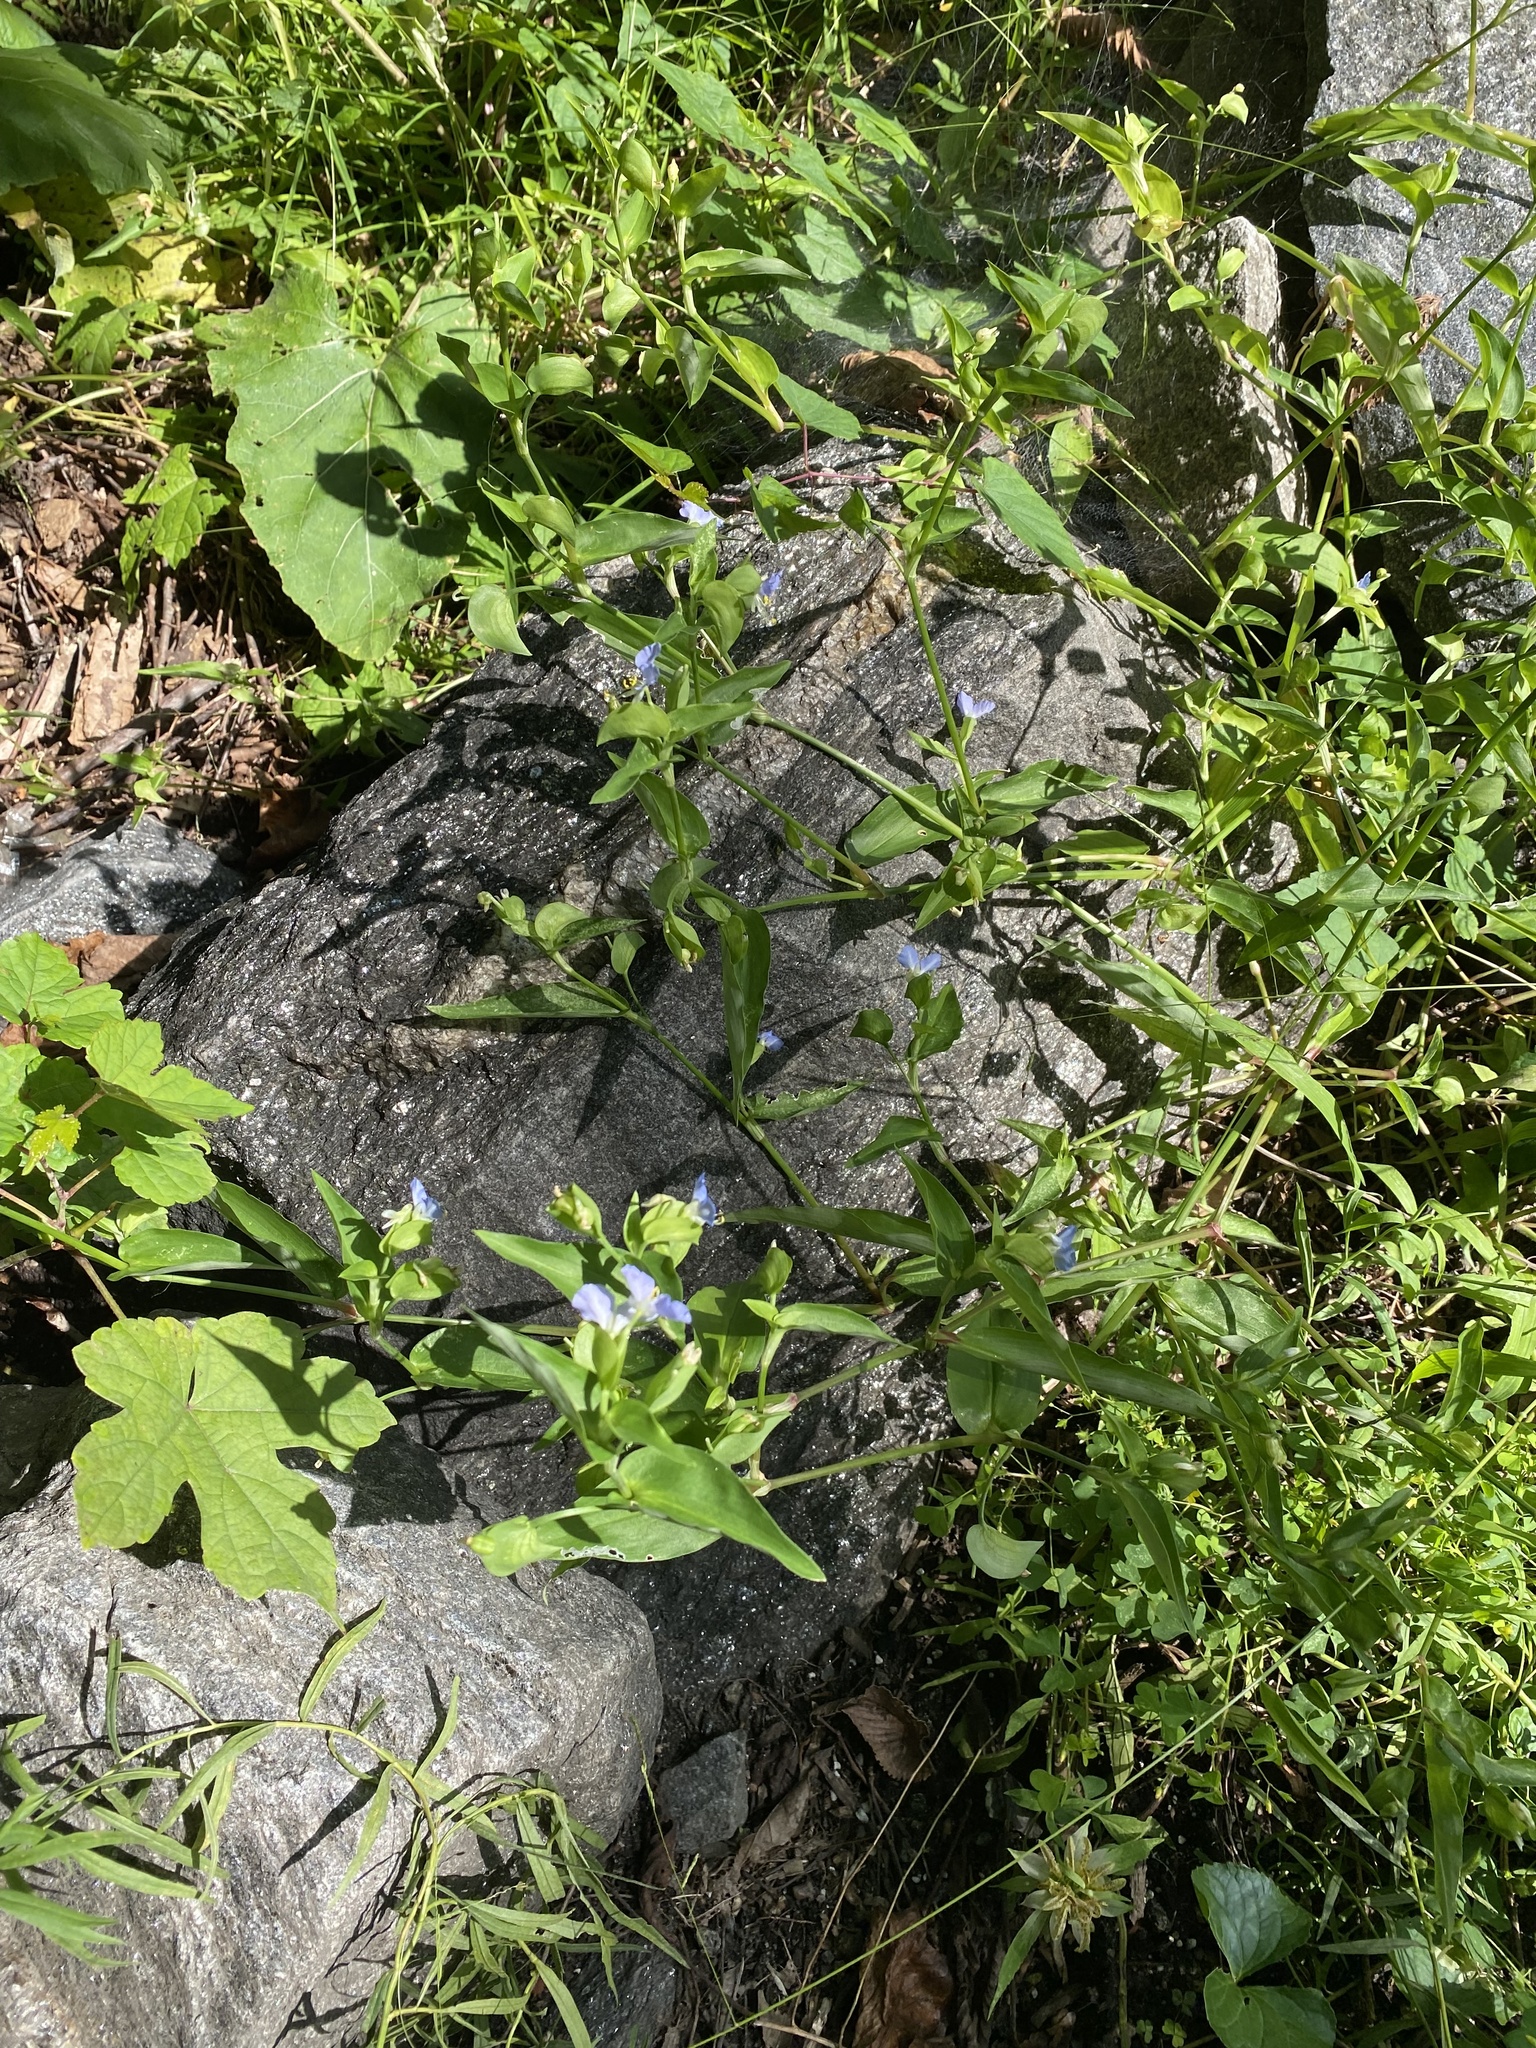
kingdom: Plantae
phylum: Tracheophyta
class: Liliopsida
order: Commelinales
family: Commelinaceae
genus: Commelina
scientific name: Commelina communis
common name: Asiatic dayflower
